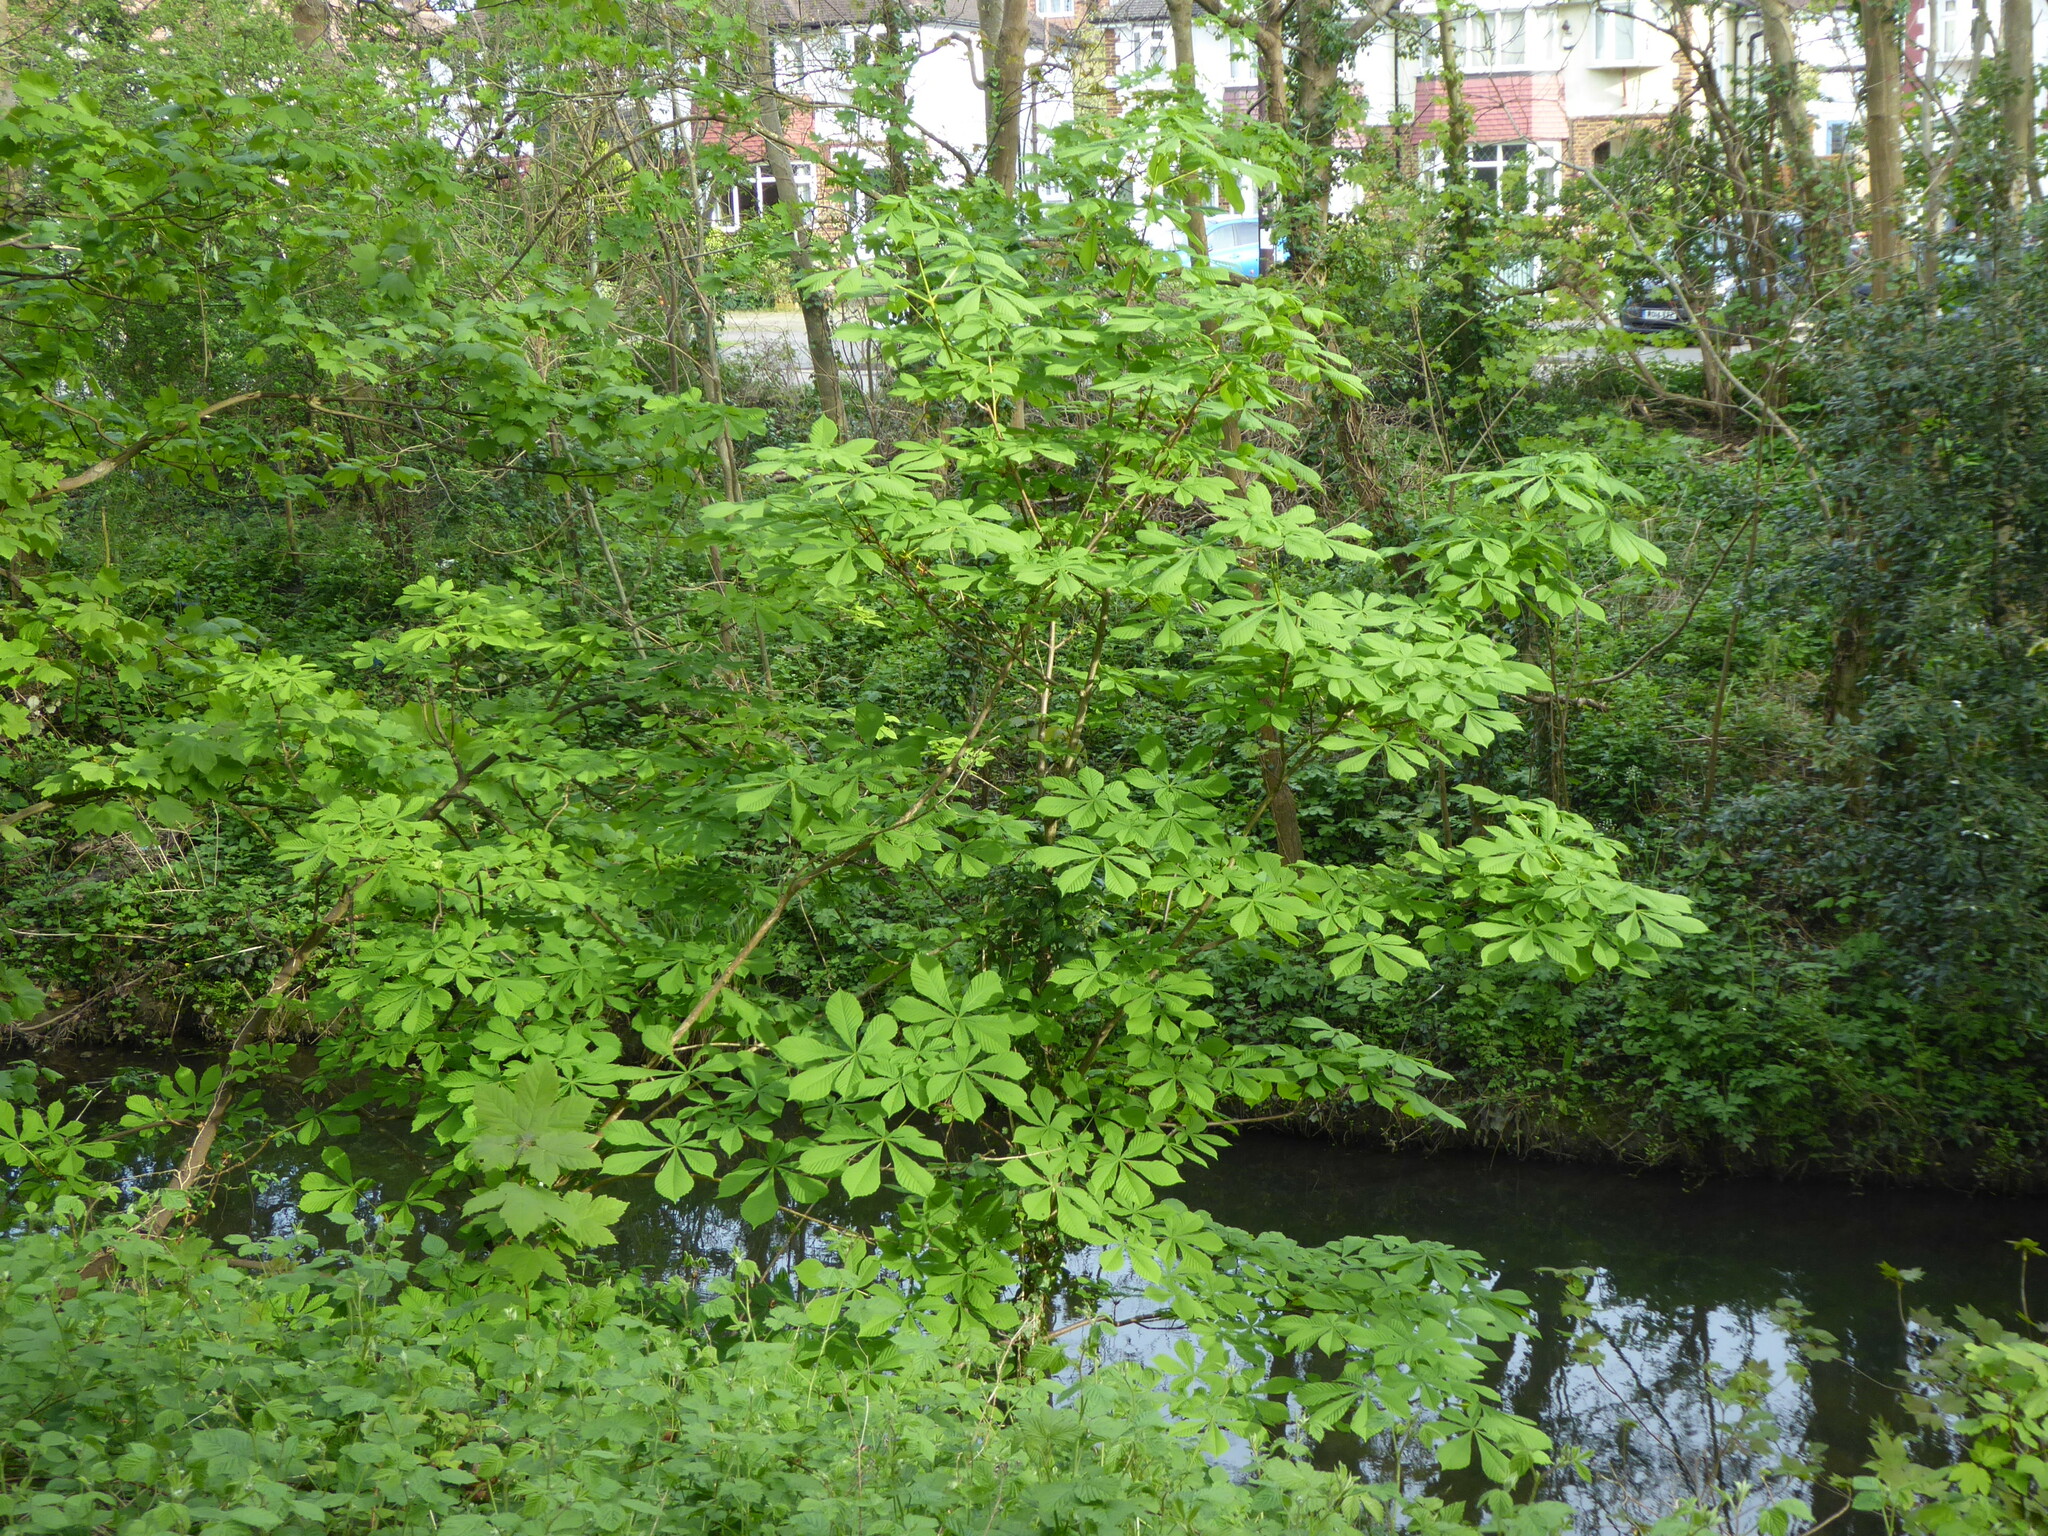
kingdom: Plantae
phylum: Tracheophyta
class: Magnoliopsida
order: Sapindales
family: Sapindaceae
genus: Aesculus
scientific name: Aesculus hippocastanum
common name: Horse-chestnut
